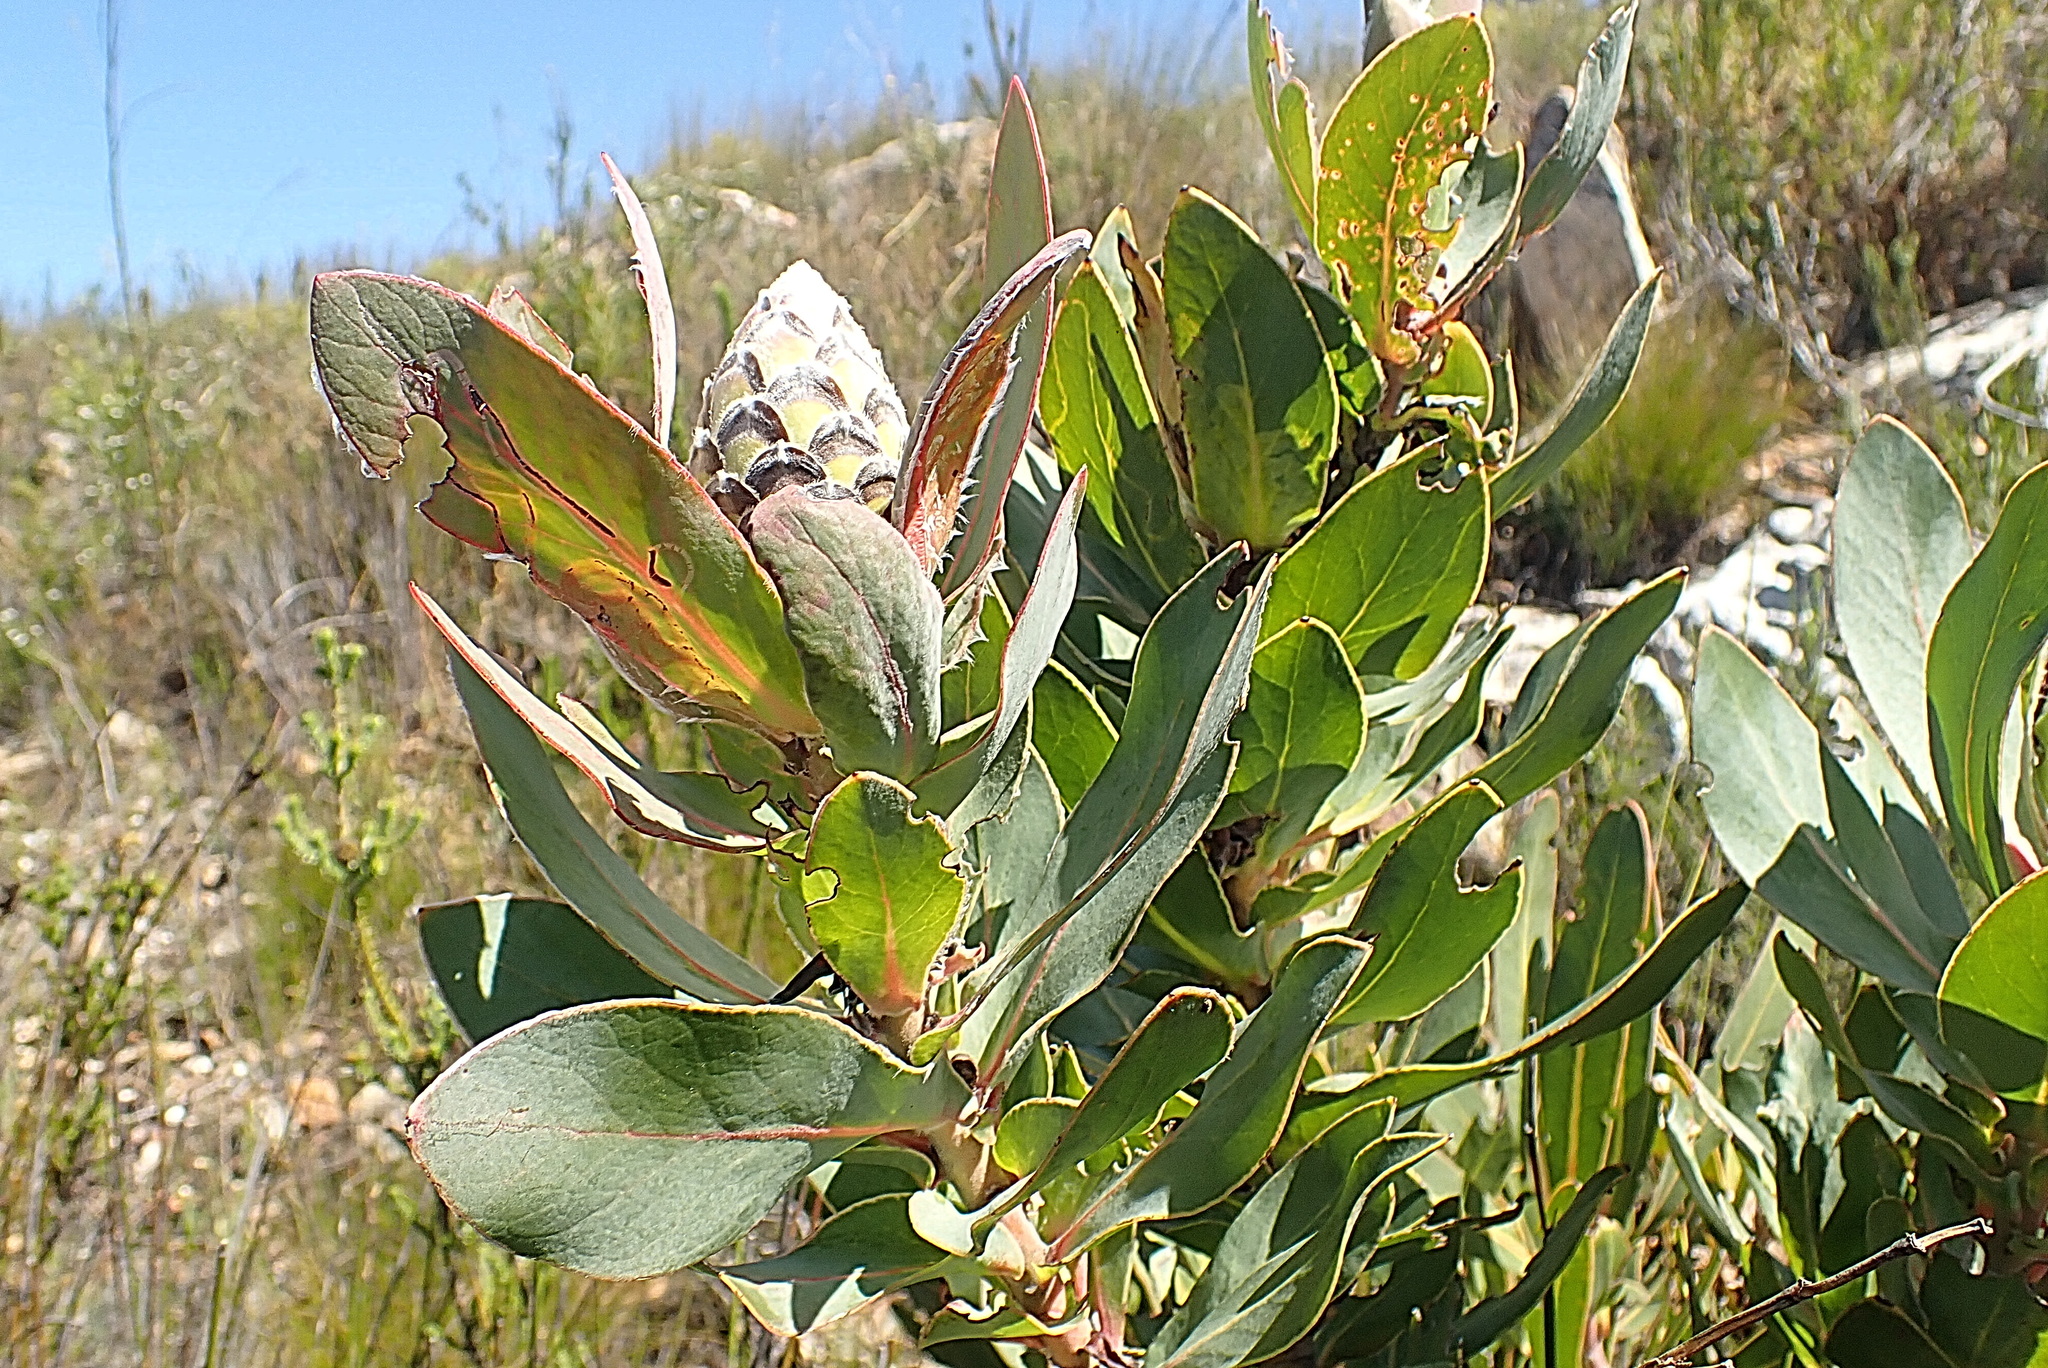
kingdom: Plantae
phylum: Tracheophyta
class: Magnoliopsida
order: Proteales
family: Proteaceae
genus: Protea
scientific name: Protea eximia
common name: Broad-leaved sugarbush
